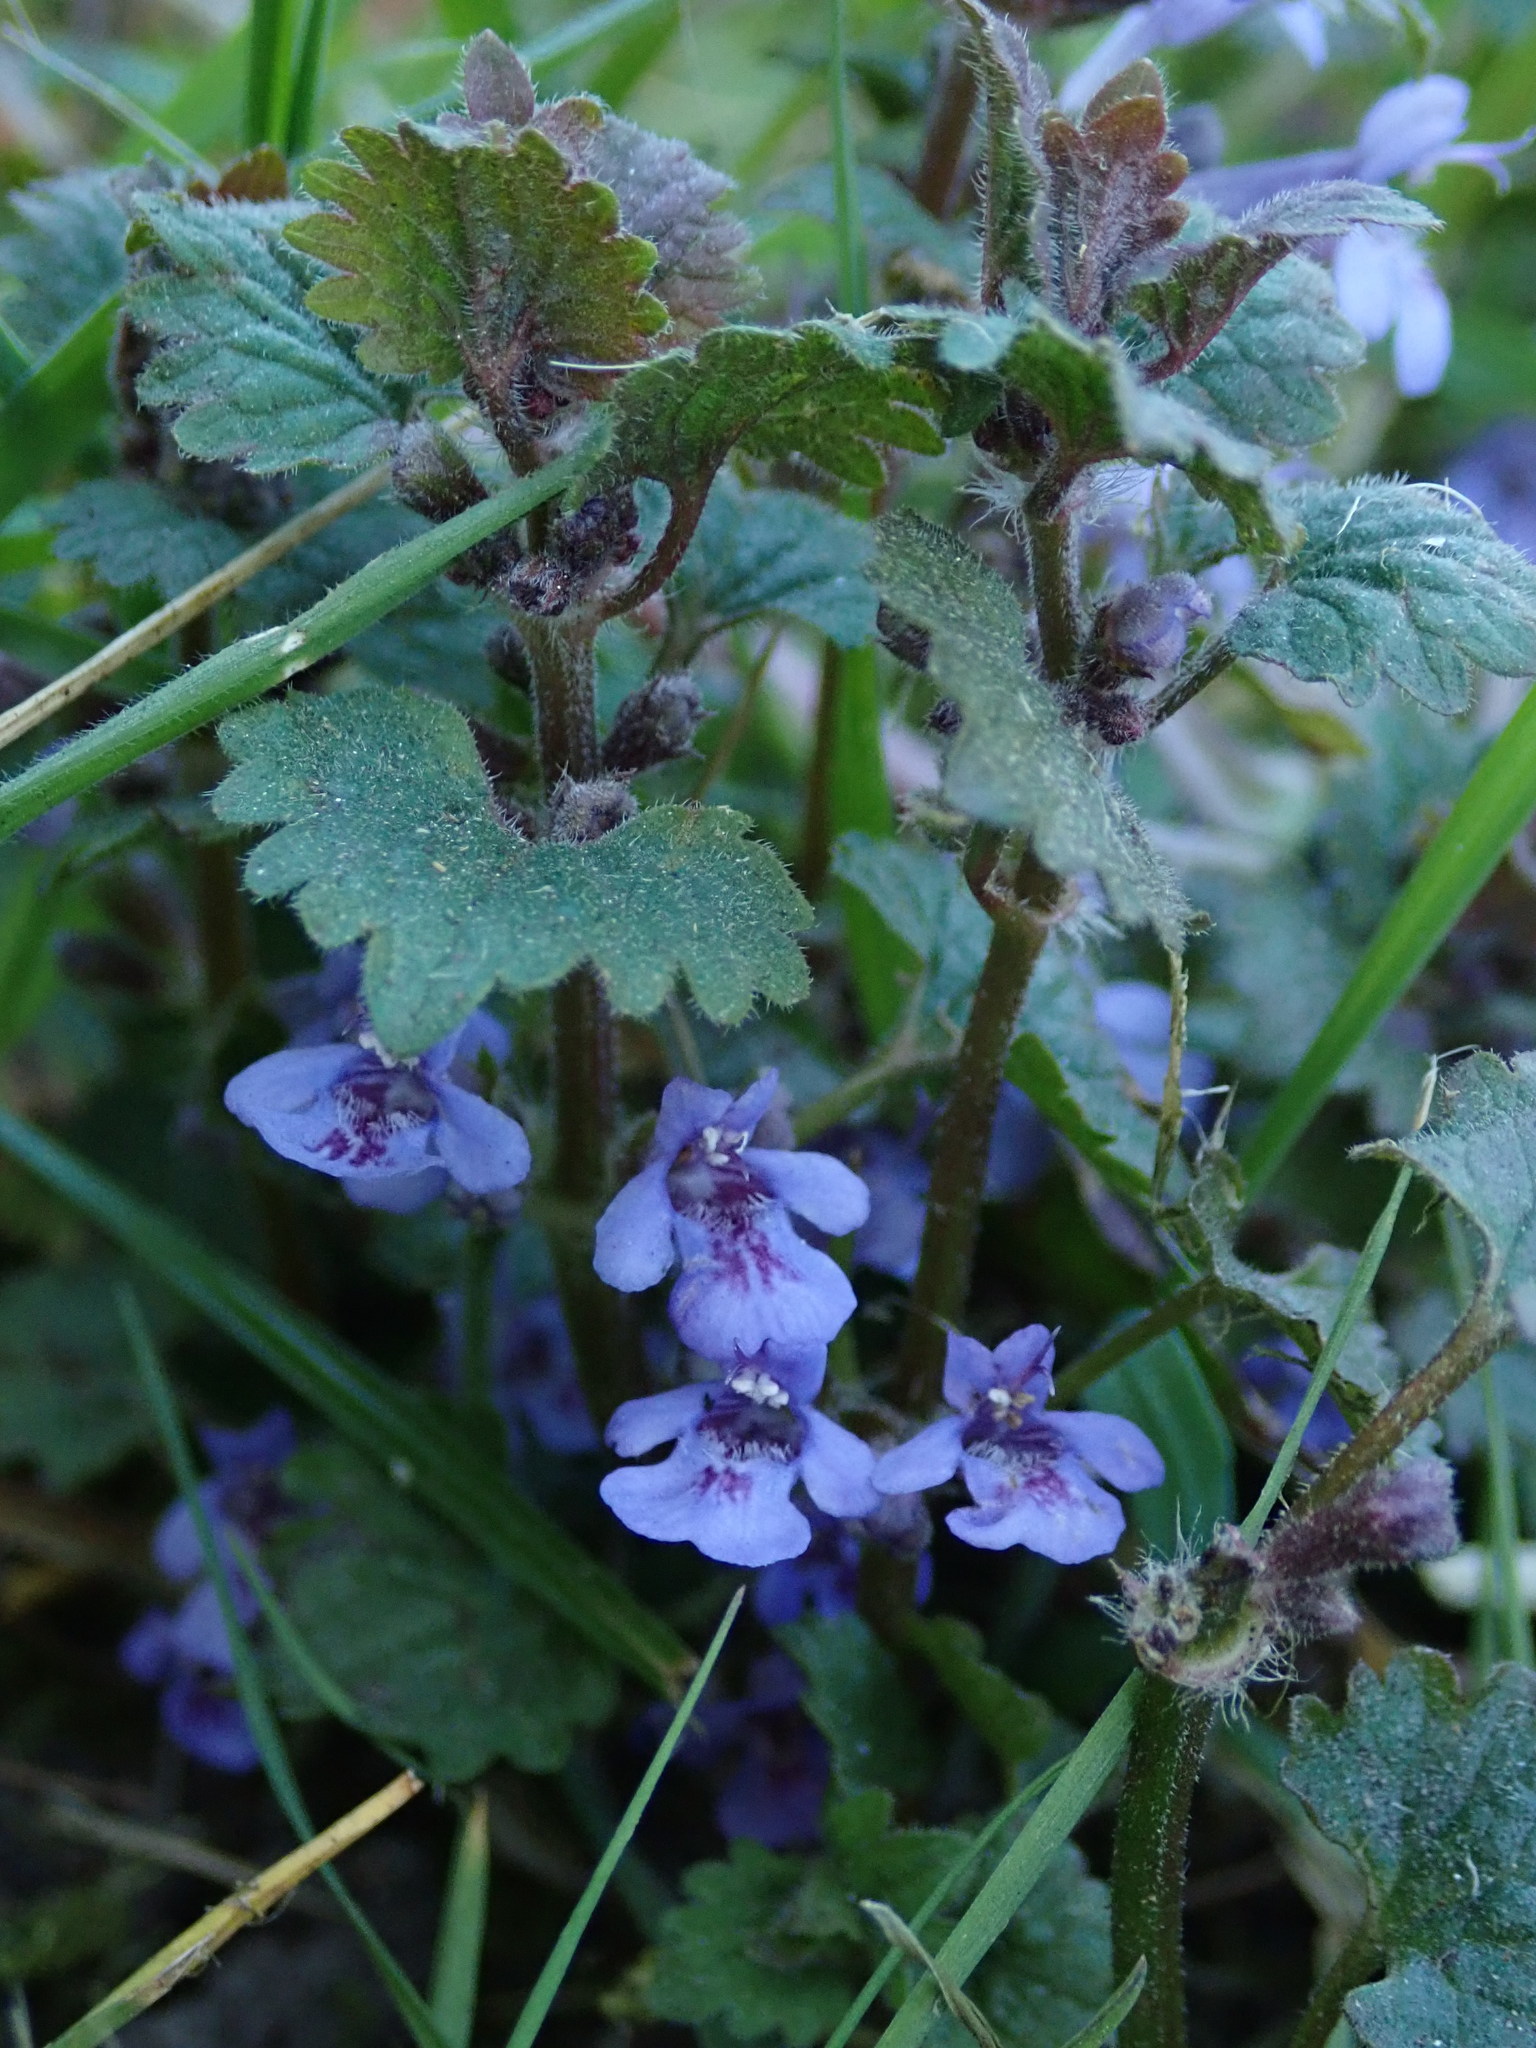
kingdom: Plantae
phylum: Tracheophyta
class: Magnoliopsida
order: Lamiales
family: Lamiaceae
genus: Glechoma
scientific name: Glechoma hederacea
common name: Ground ivy
